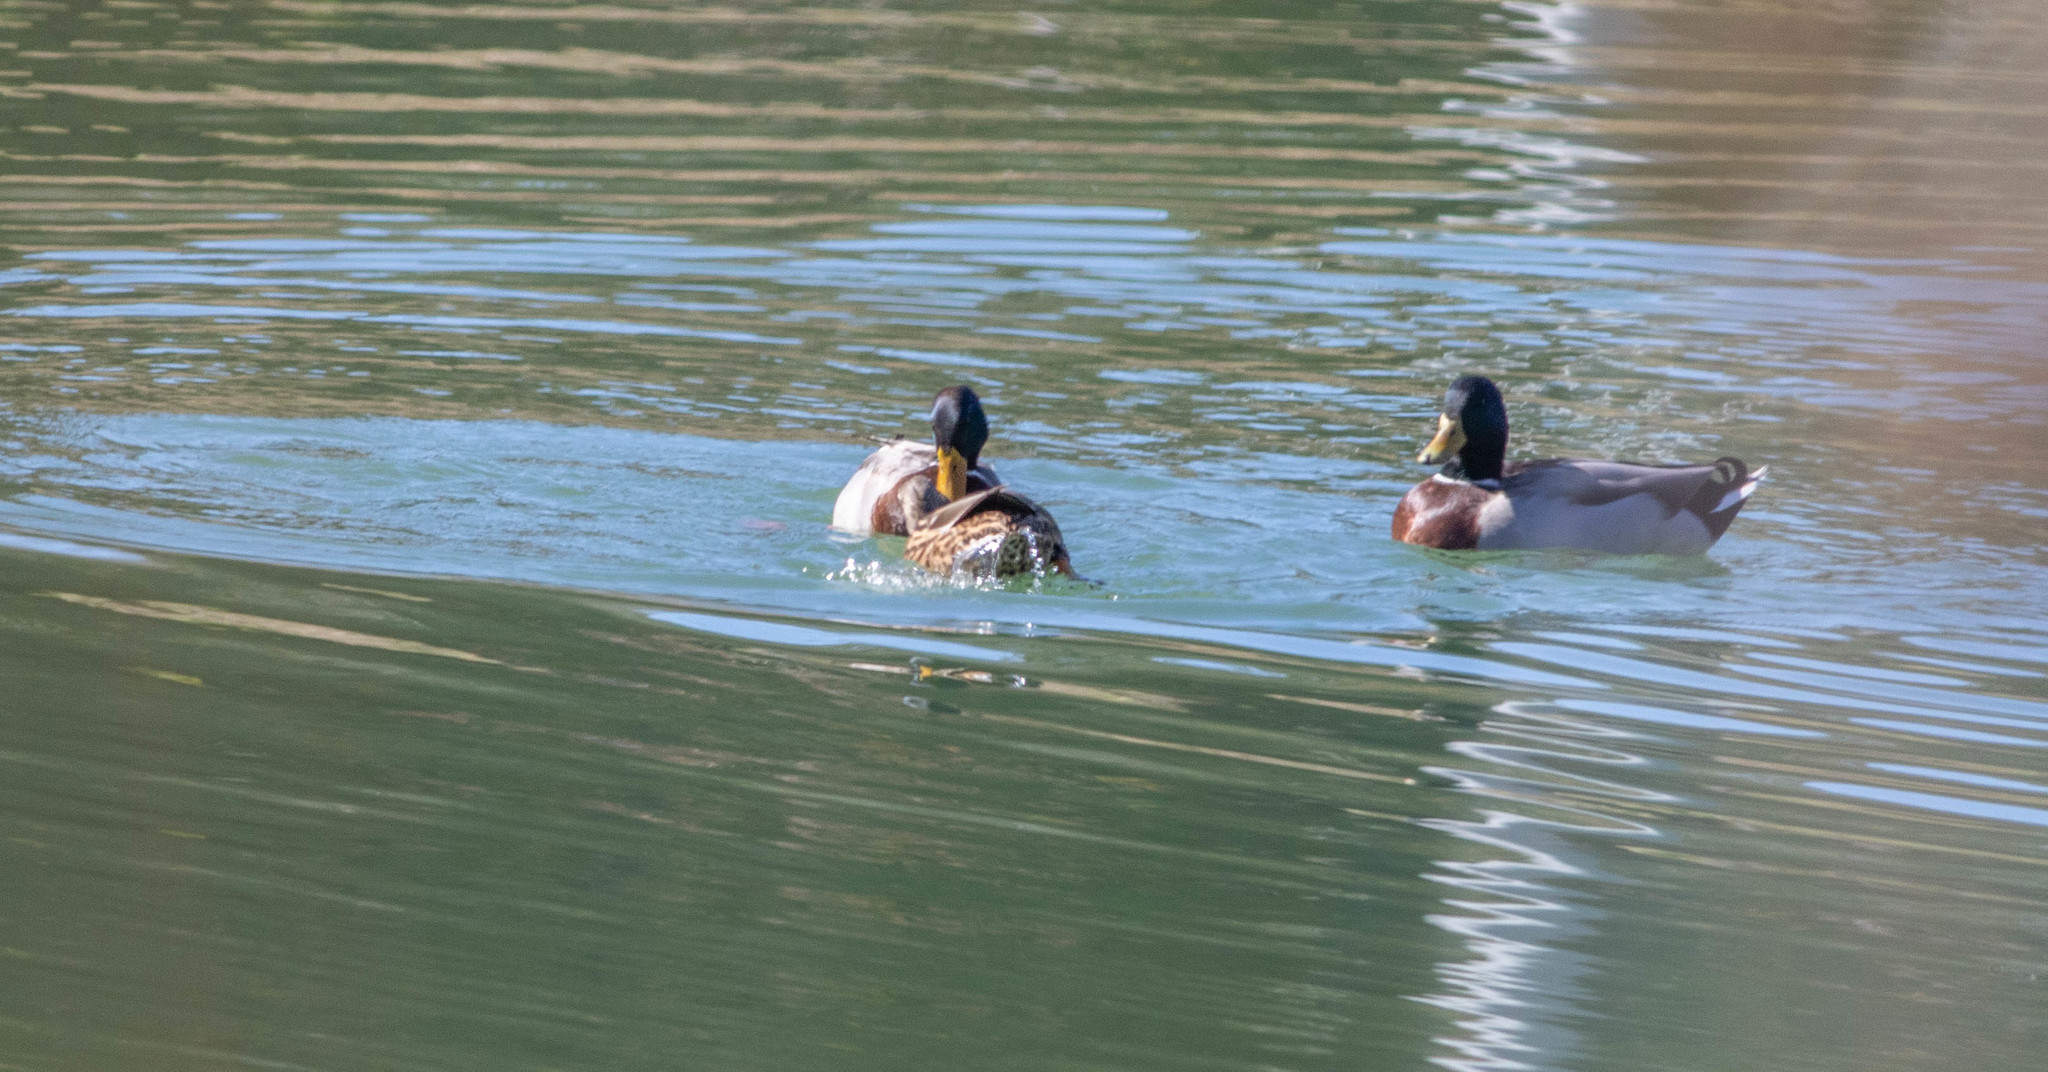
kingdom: Animalia
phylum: Chordata
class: Aves
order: Anseriformes
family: Anatidae
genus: Anas
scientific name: Anas platyrhynchos
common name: Mallard
